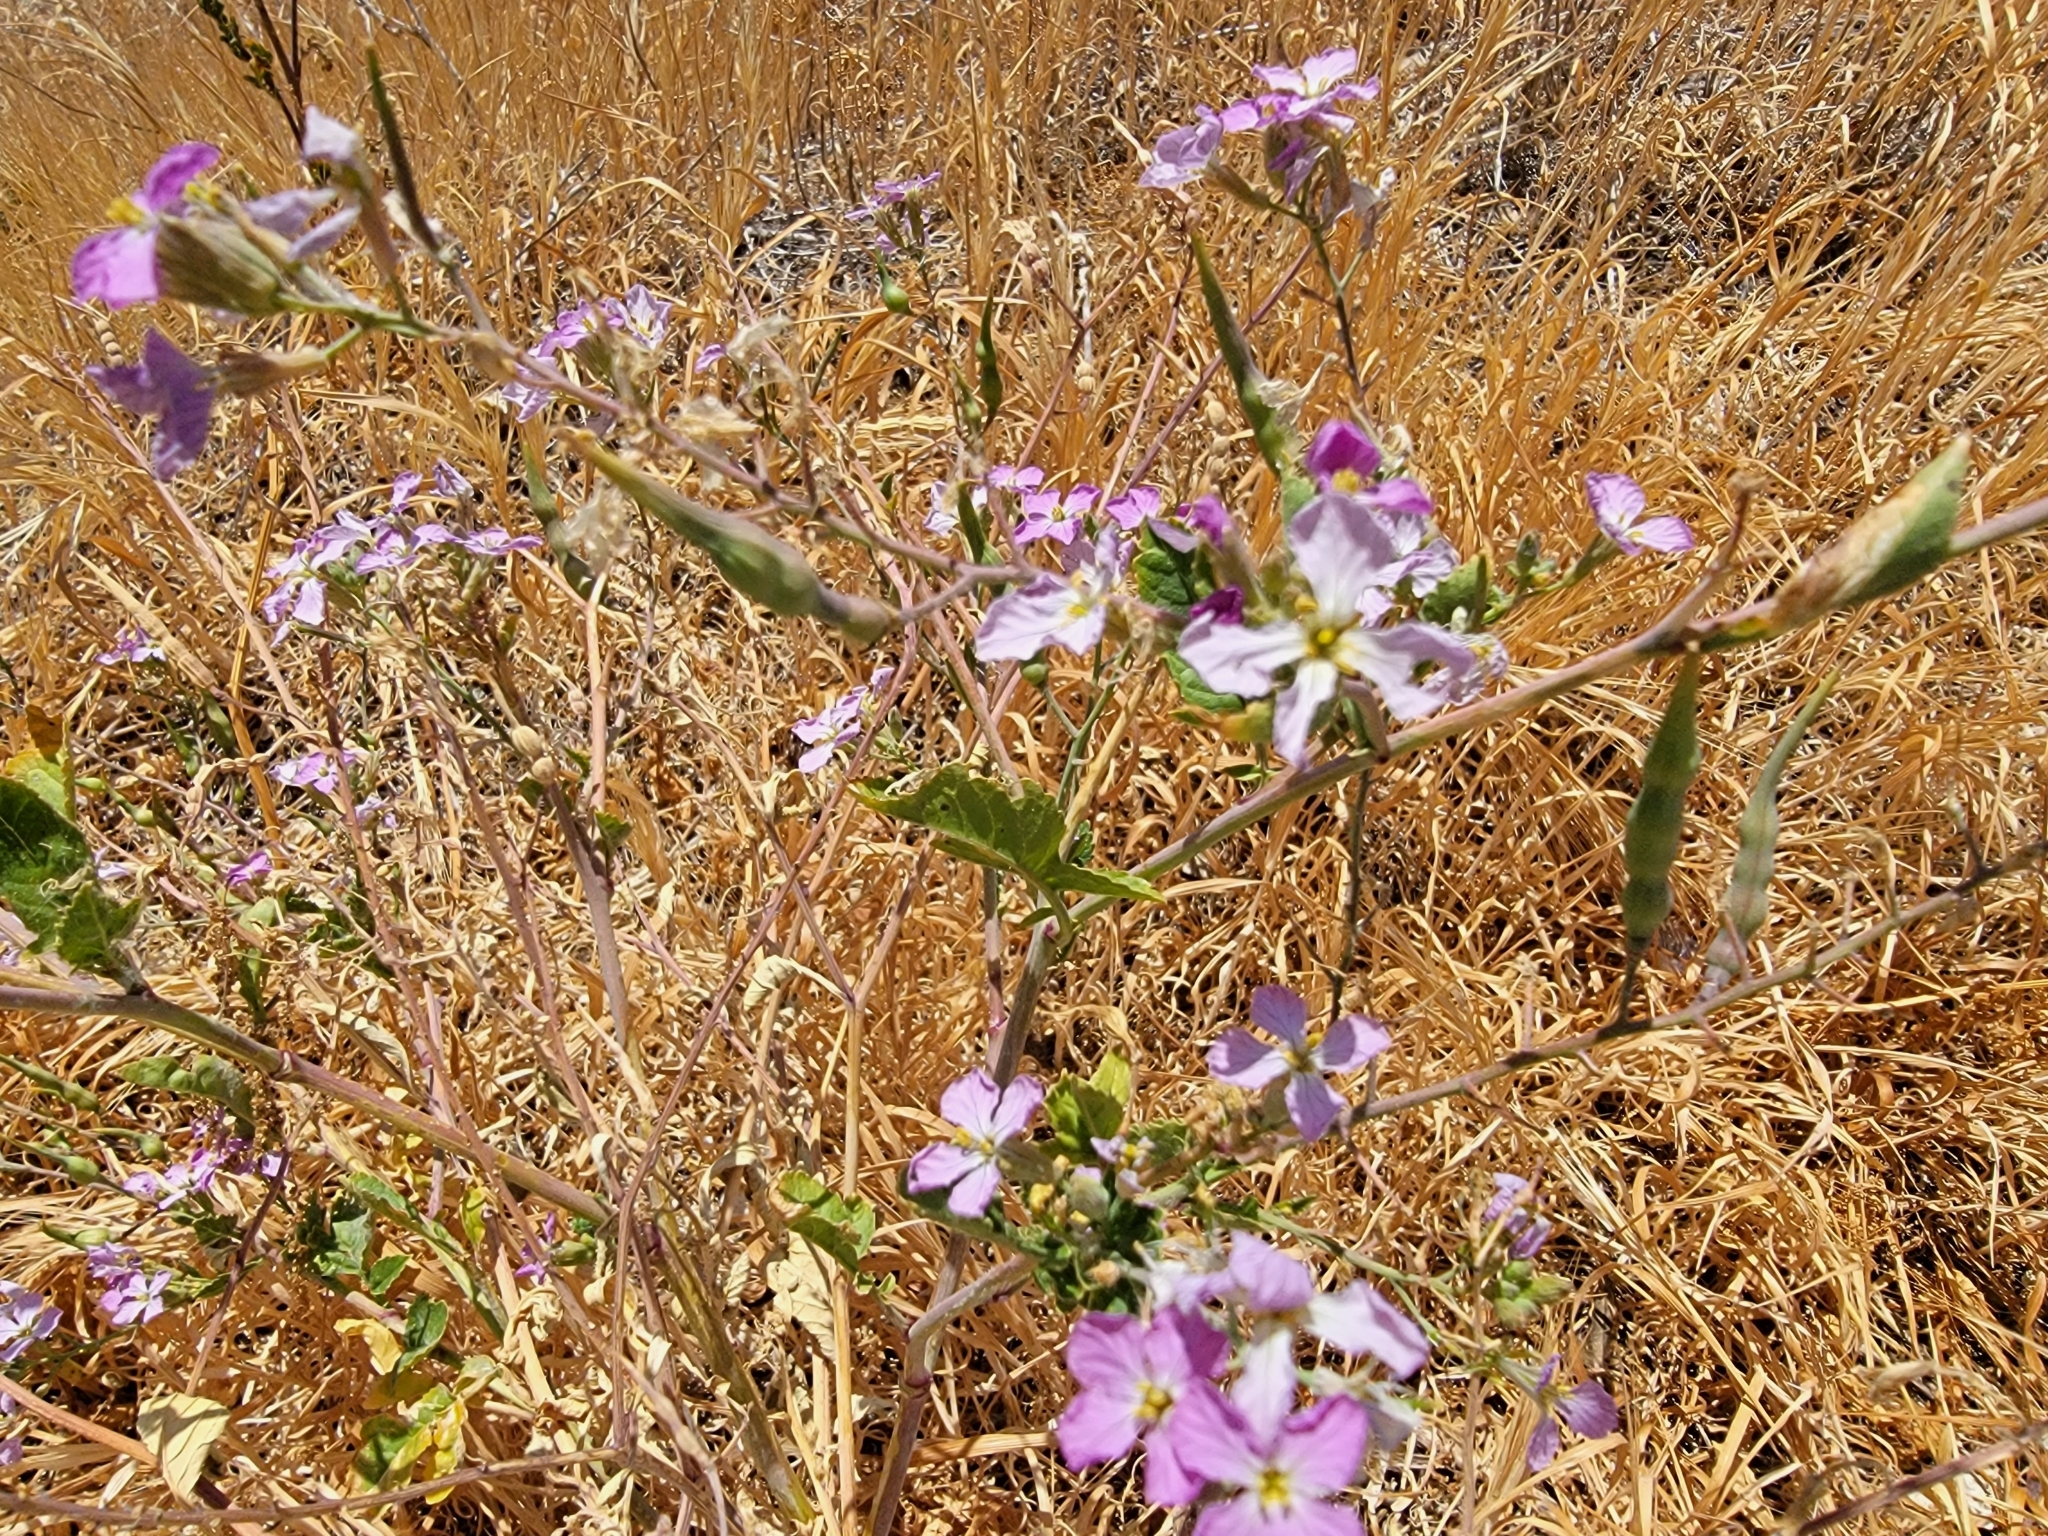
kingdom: Plantae
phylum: Tracheophyta
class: Magnoliopsida
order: Brassicales
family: Brassicaceae
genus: Raphanus
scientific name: Raphanus sativus
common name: Cultivated radish
